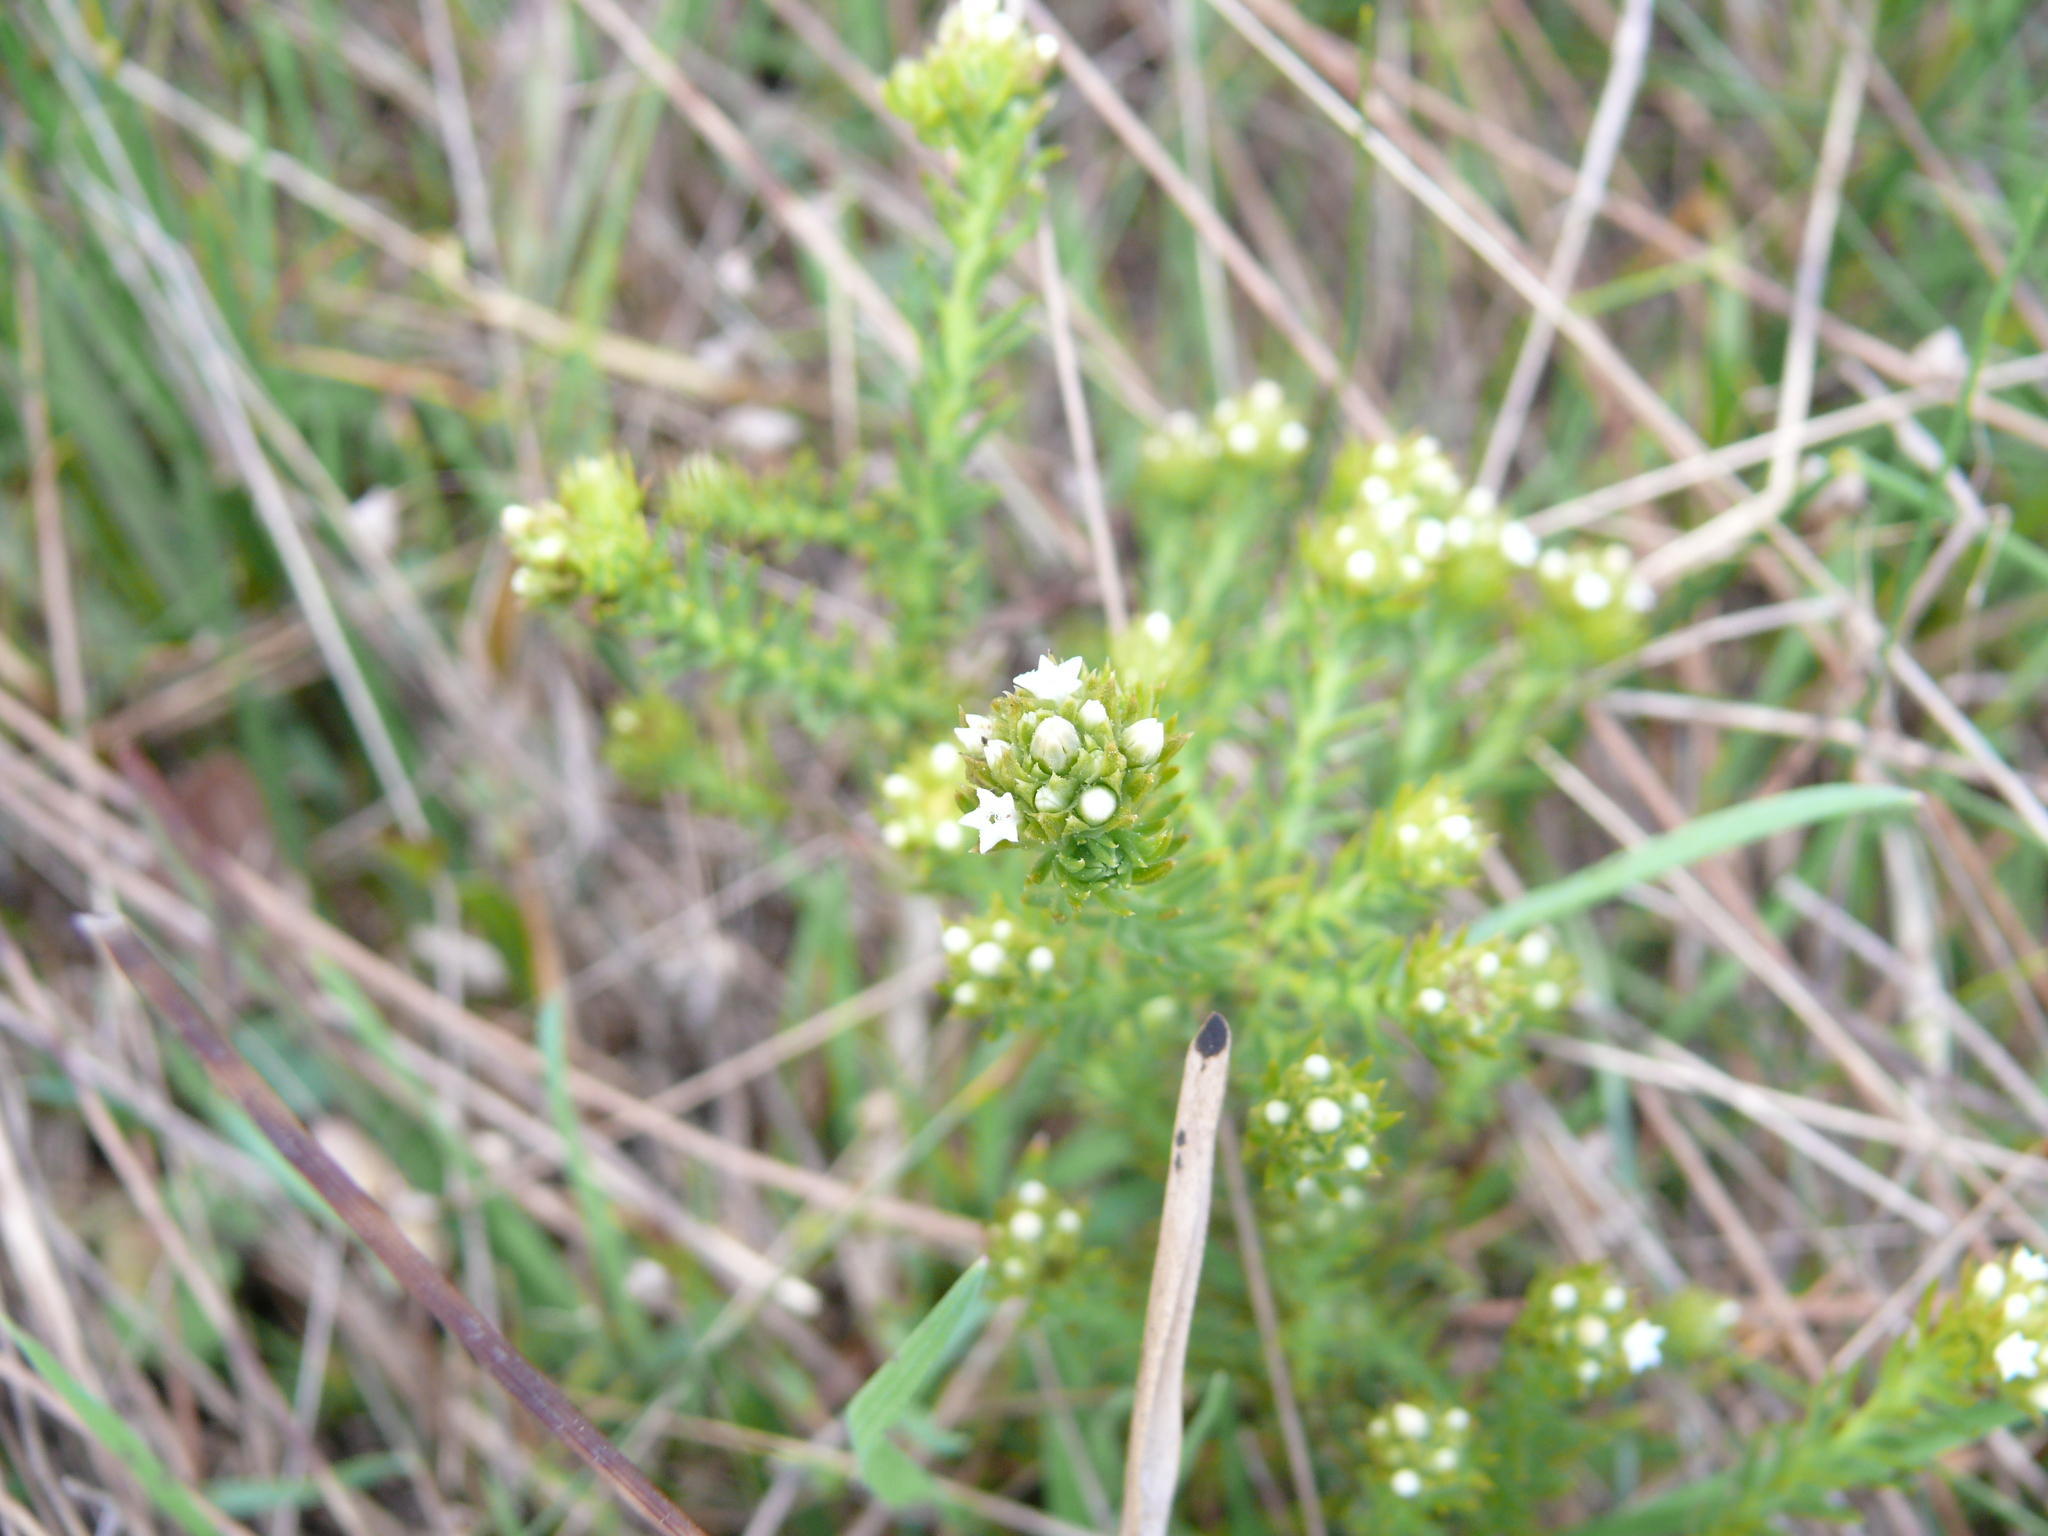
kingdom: Plantae
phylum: Tracheophyta
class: Magnoliopsida
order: Santalales
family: Thesiaceae
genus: Thesium
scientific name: Thesium scabrum
